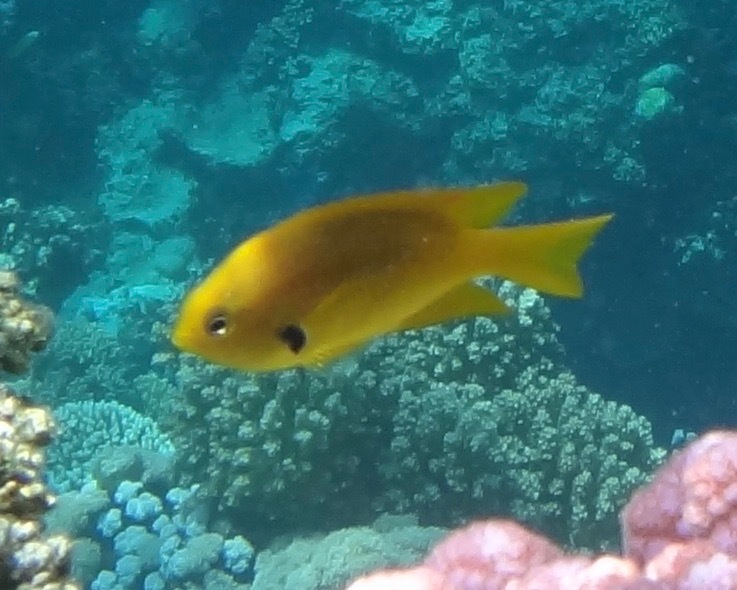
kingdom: Animalia
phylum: Chordata
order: Perciformes
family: Pomacentridae
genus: Pomacentrus
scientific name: Pomacentrus sulfureus
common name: Sulfur damsel
